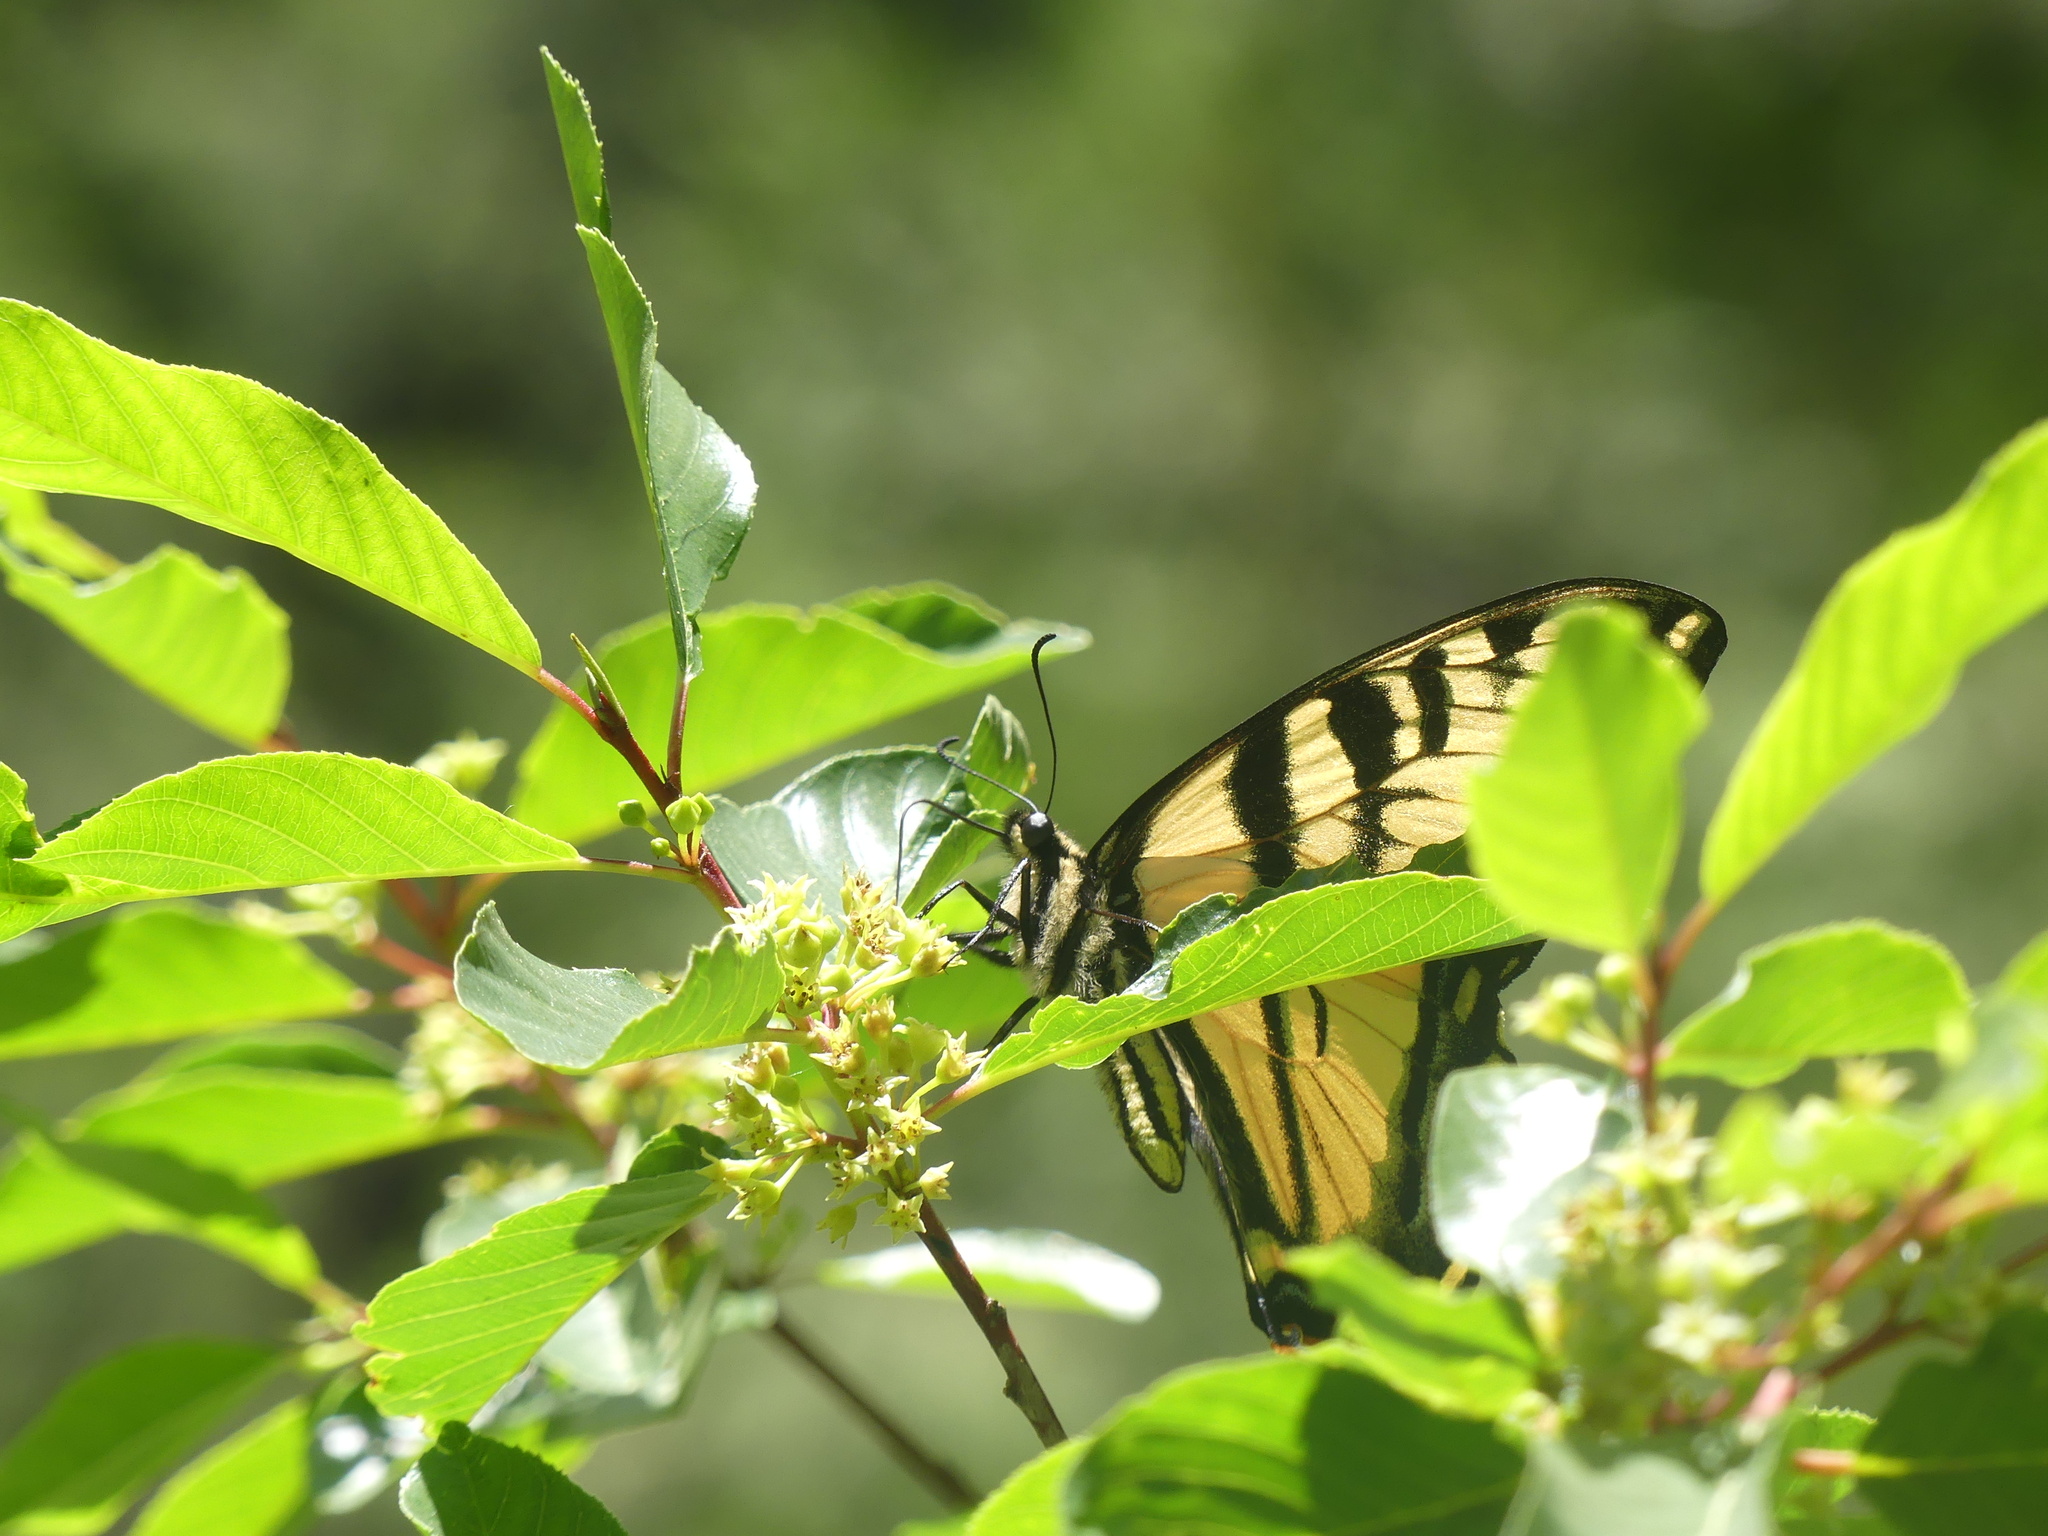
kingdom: Animalia
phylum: Arthropoda
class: Insecta
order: Lepidoptera
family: Papilionidae
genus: Papilio
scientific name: Papilio rutulus
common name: Western tiger swallowtail
